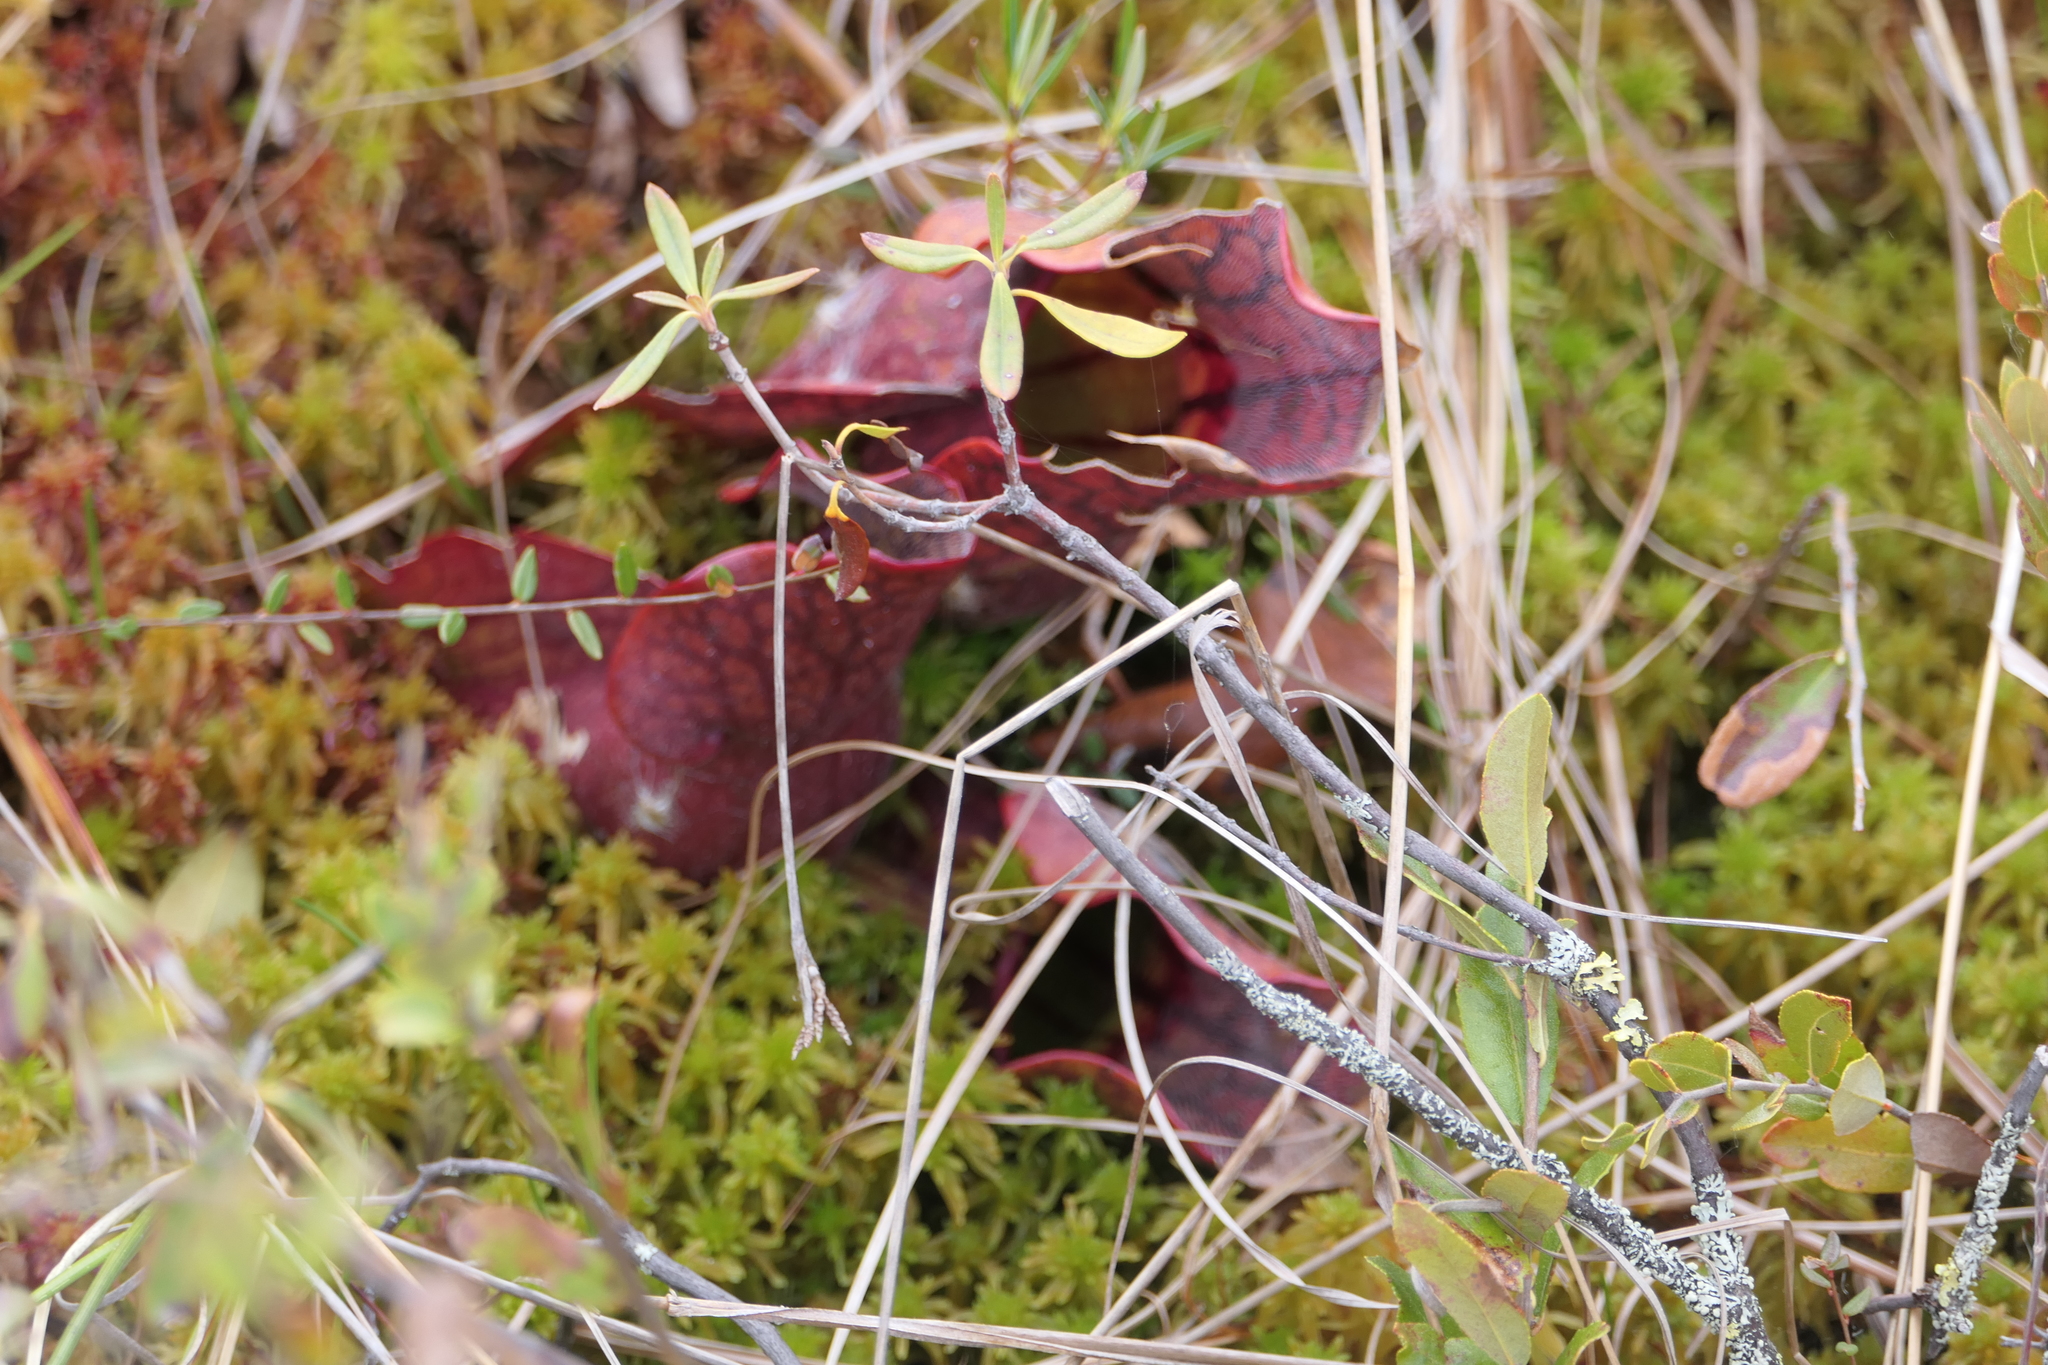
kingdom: Plantae
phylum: Tracheophyta
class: Magnoliopsida
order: Ericales
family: Sarraceniaceae
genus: Sarracenia
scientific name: Sarracenia purpurea
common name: Pitcherplant
